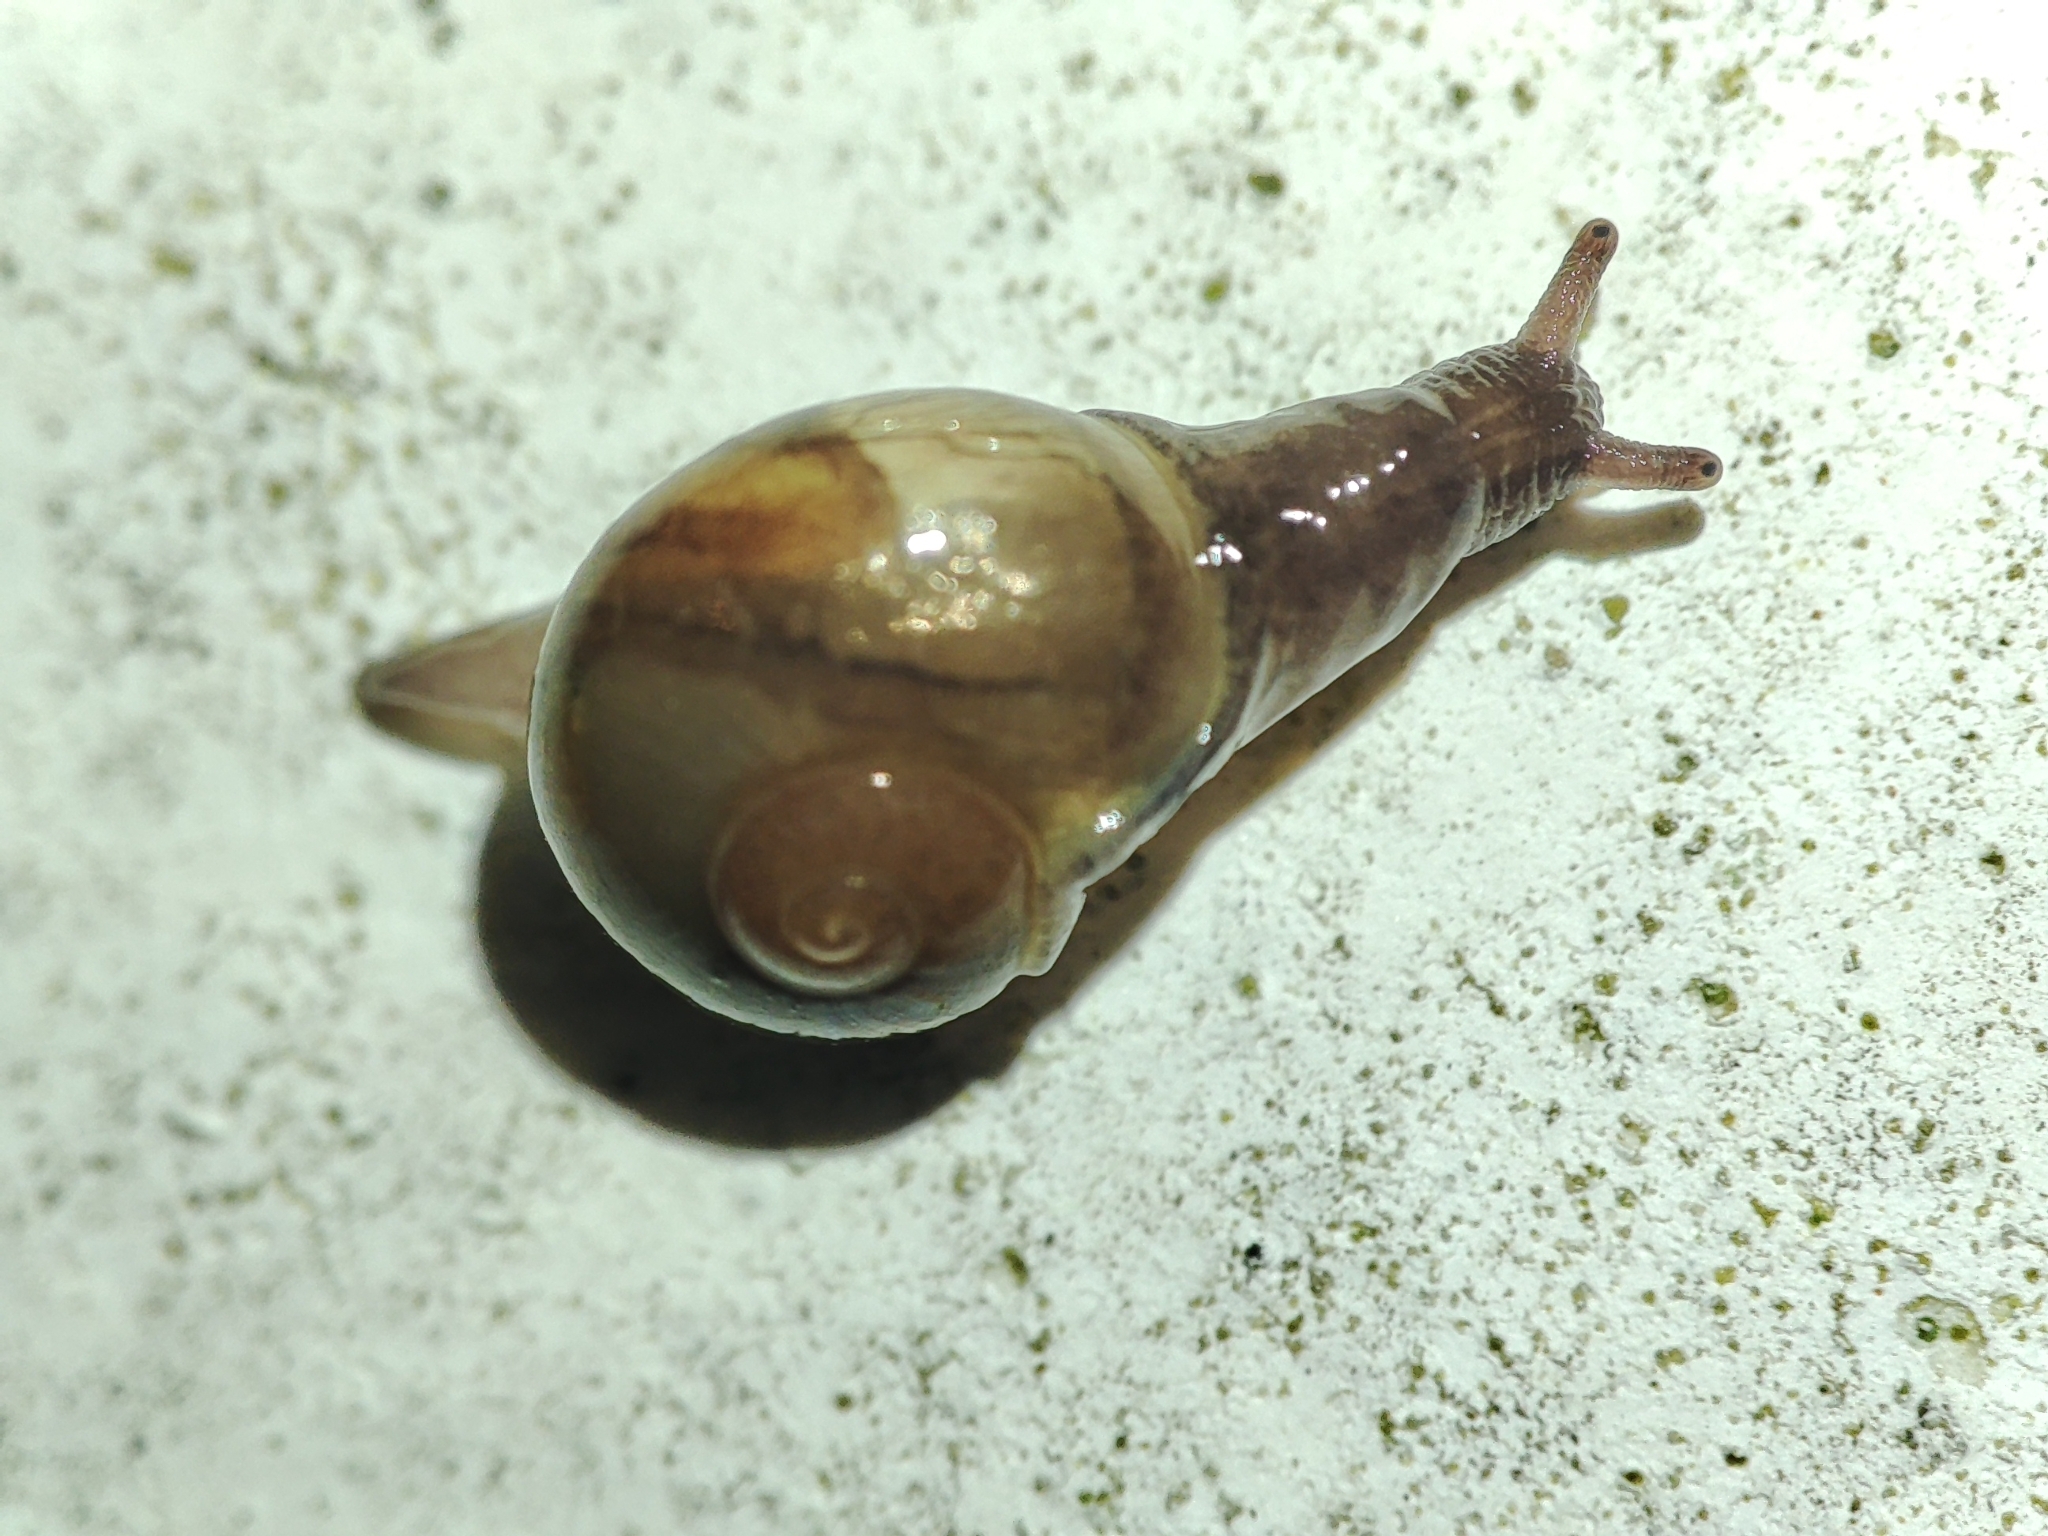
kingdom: Animalia
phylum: Mollusca
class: Gastropoda
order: Stylommatophora
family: Vitrinidae
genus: Vitrina
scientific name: Vitrina pellucida
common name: Pellucid glass snail
